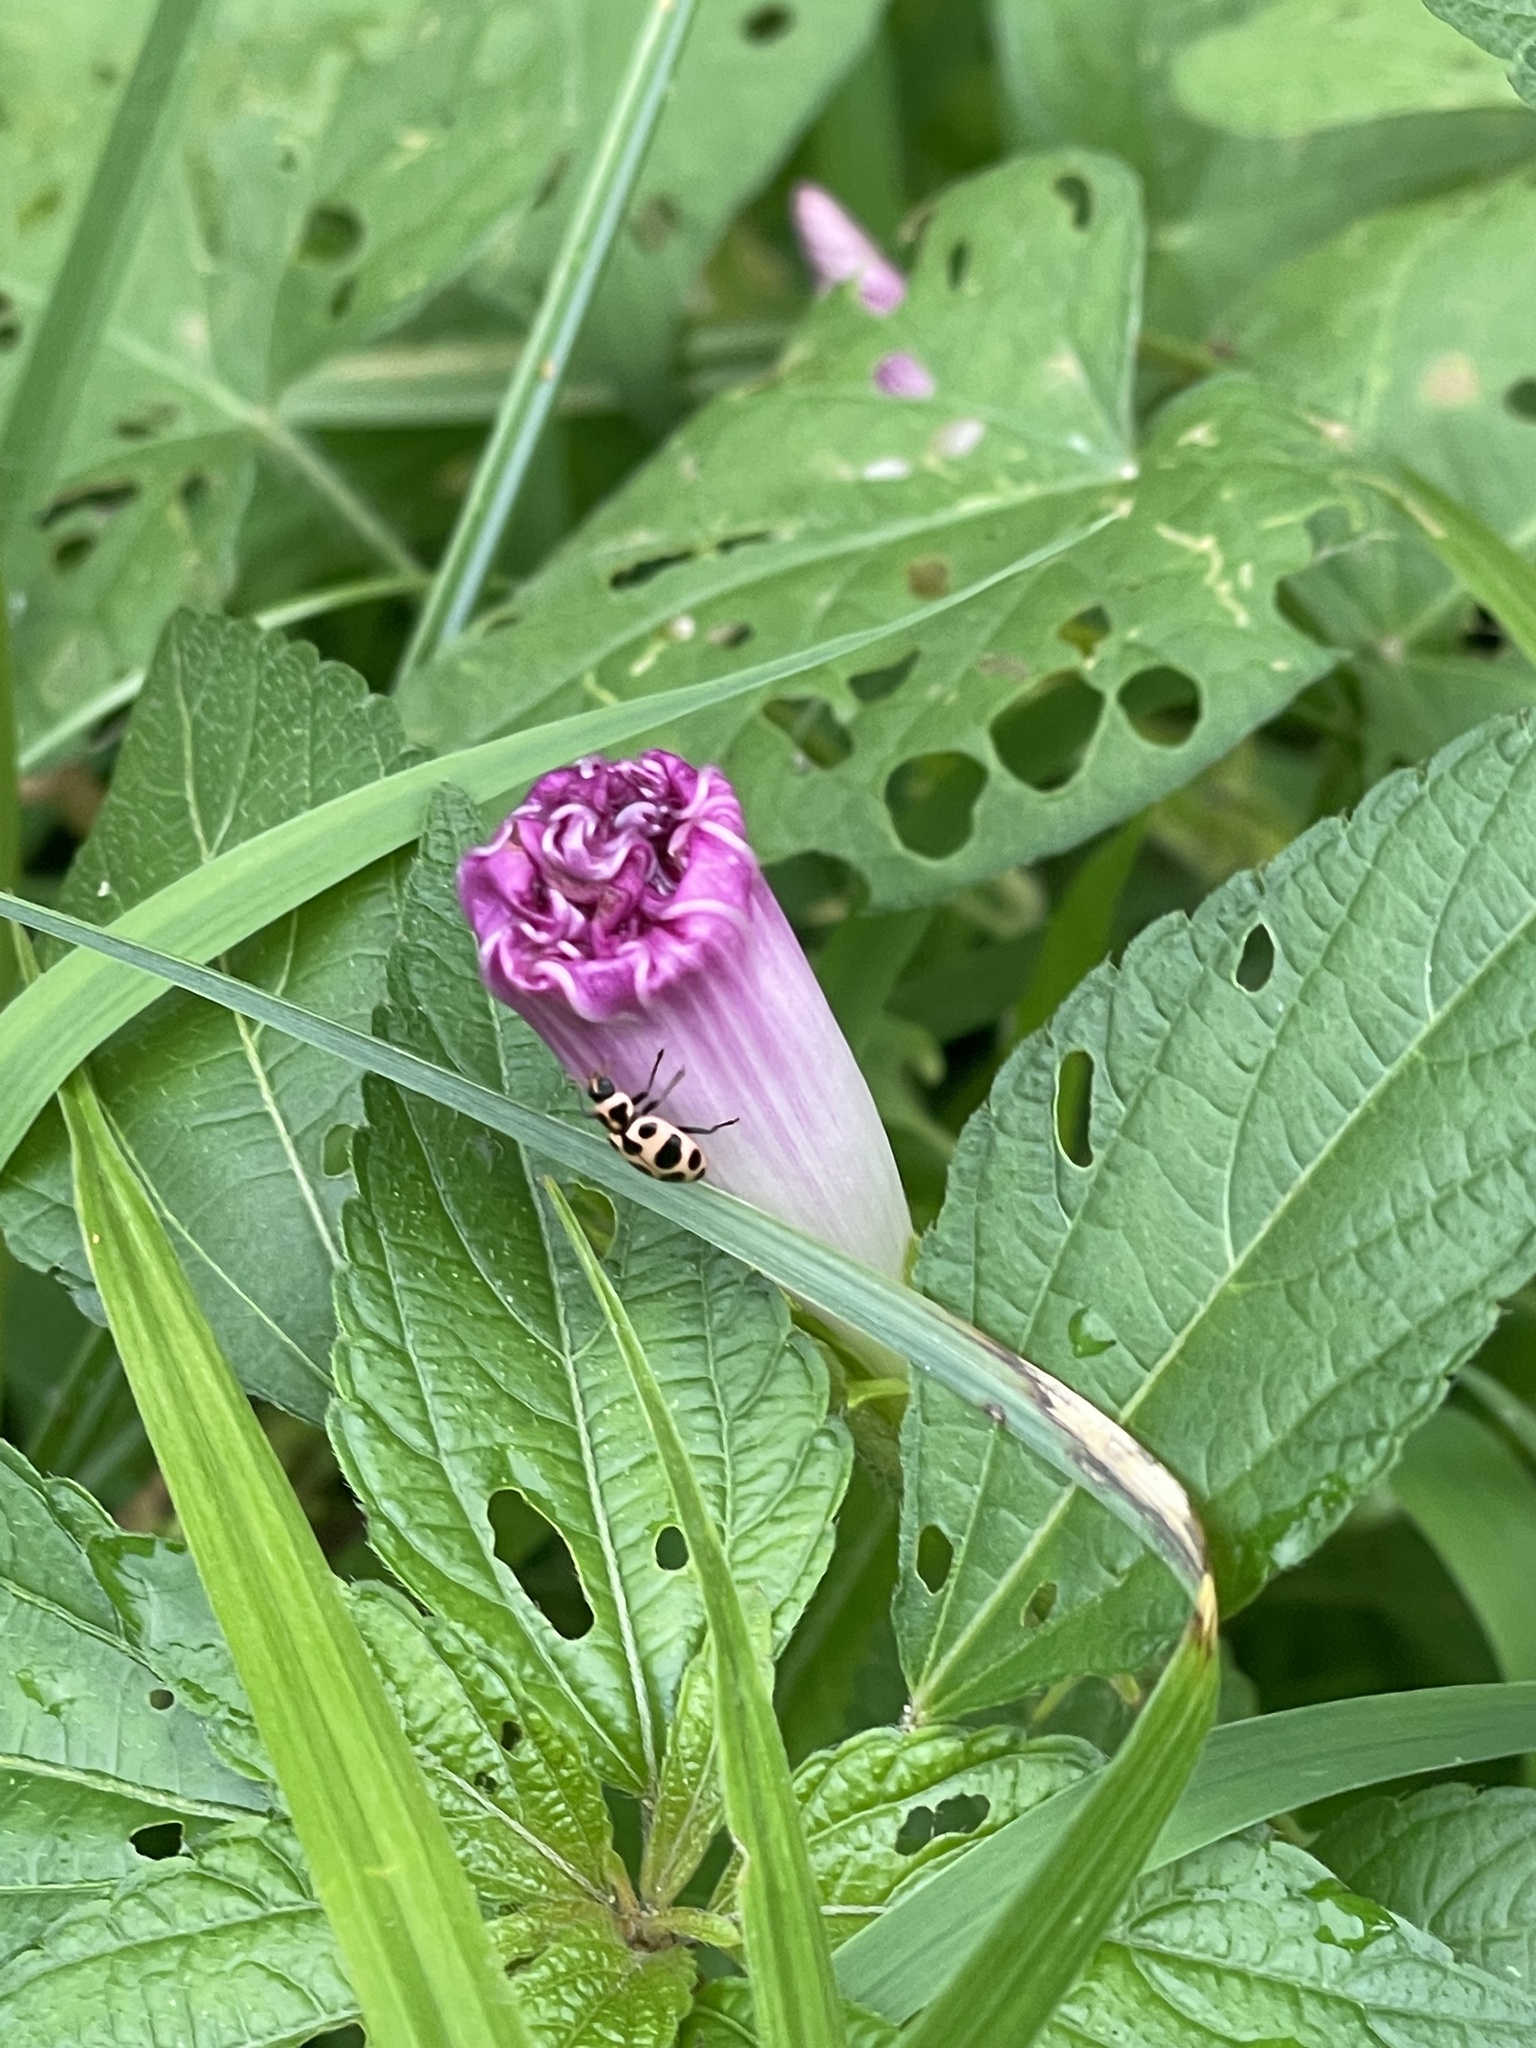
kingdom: Animalia
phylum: Arthropoda
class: Insecta
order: Coleoptera
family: Coccinellidae
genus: Coleomegilla
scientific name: Coleomegilla maculata
